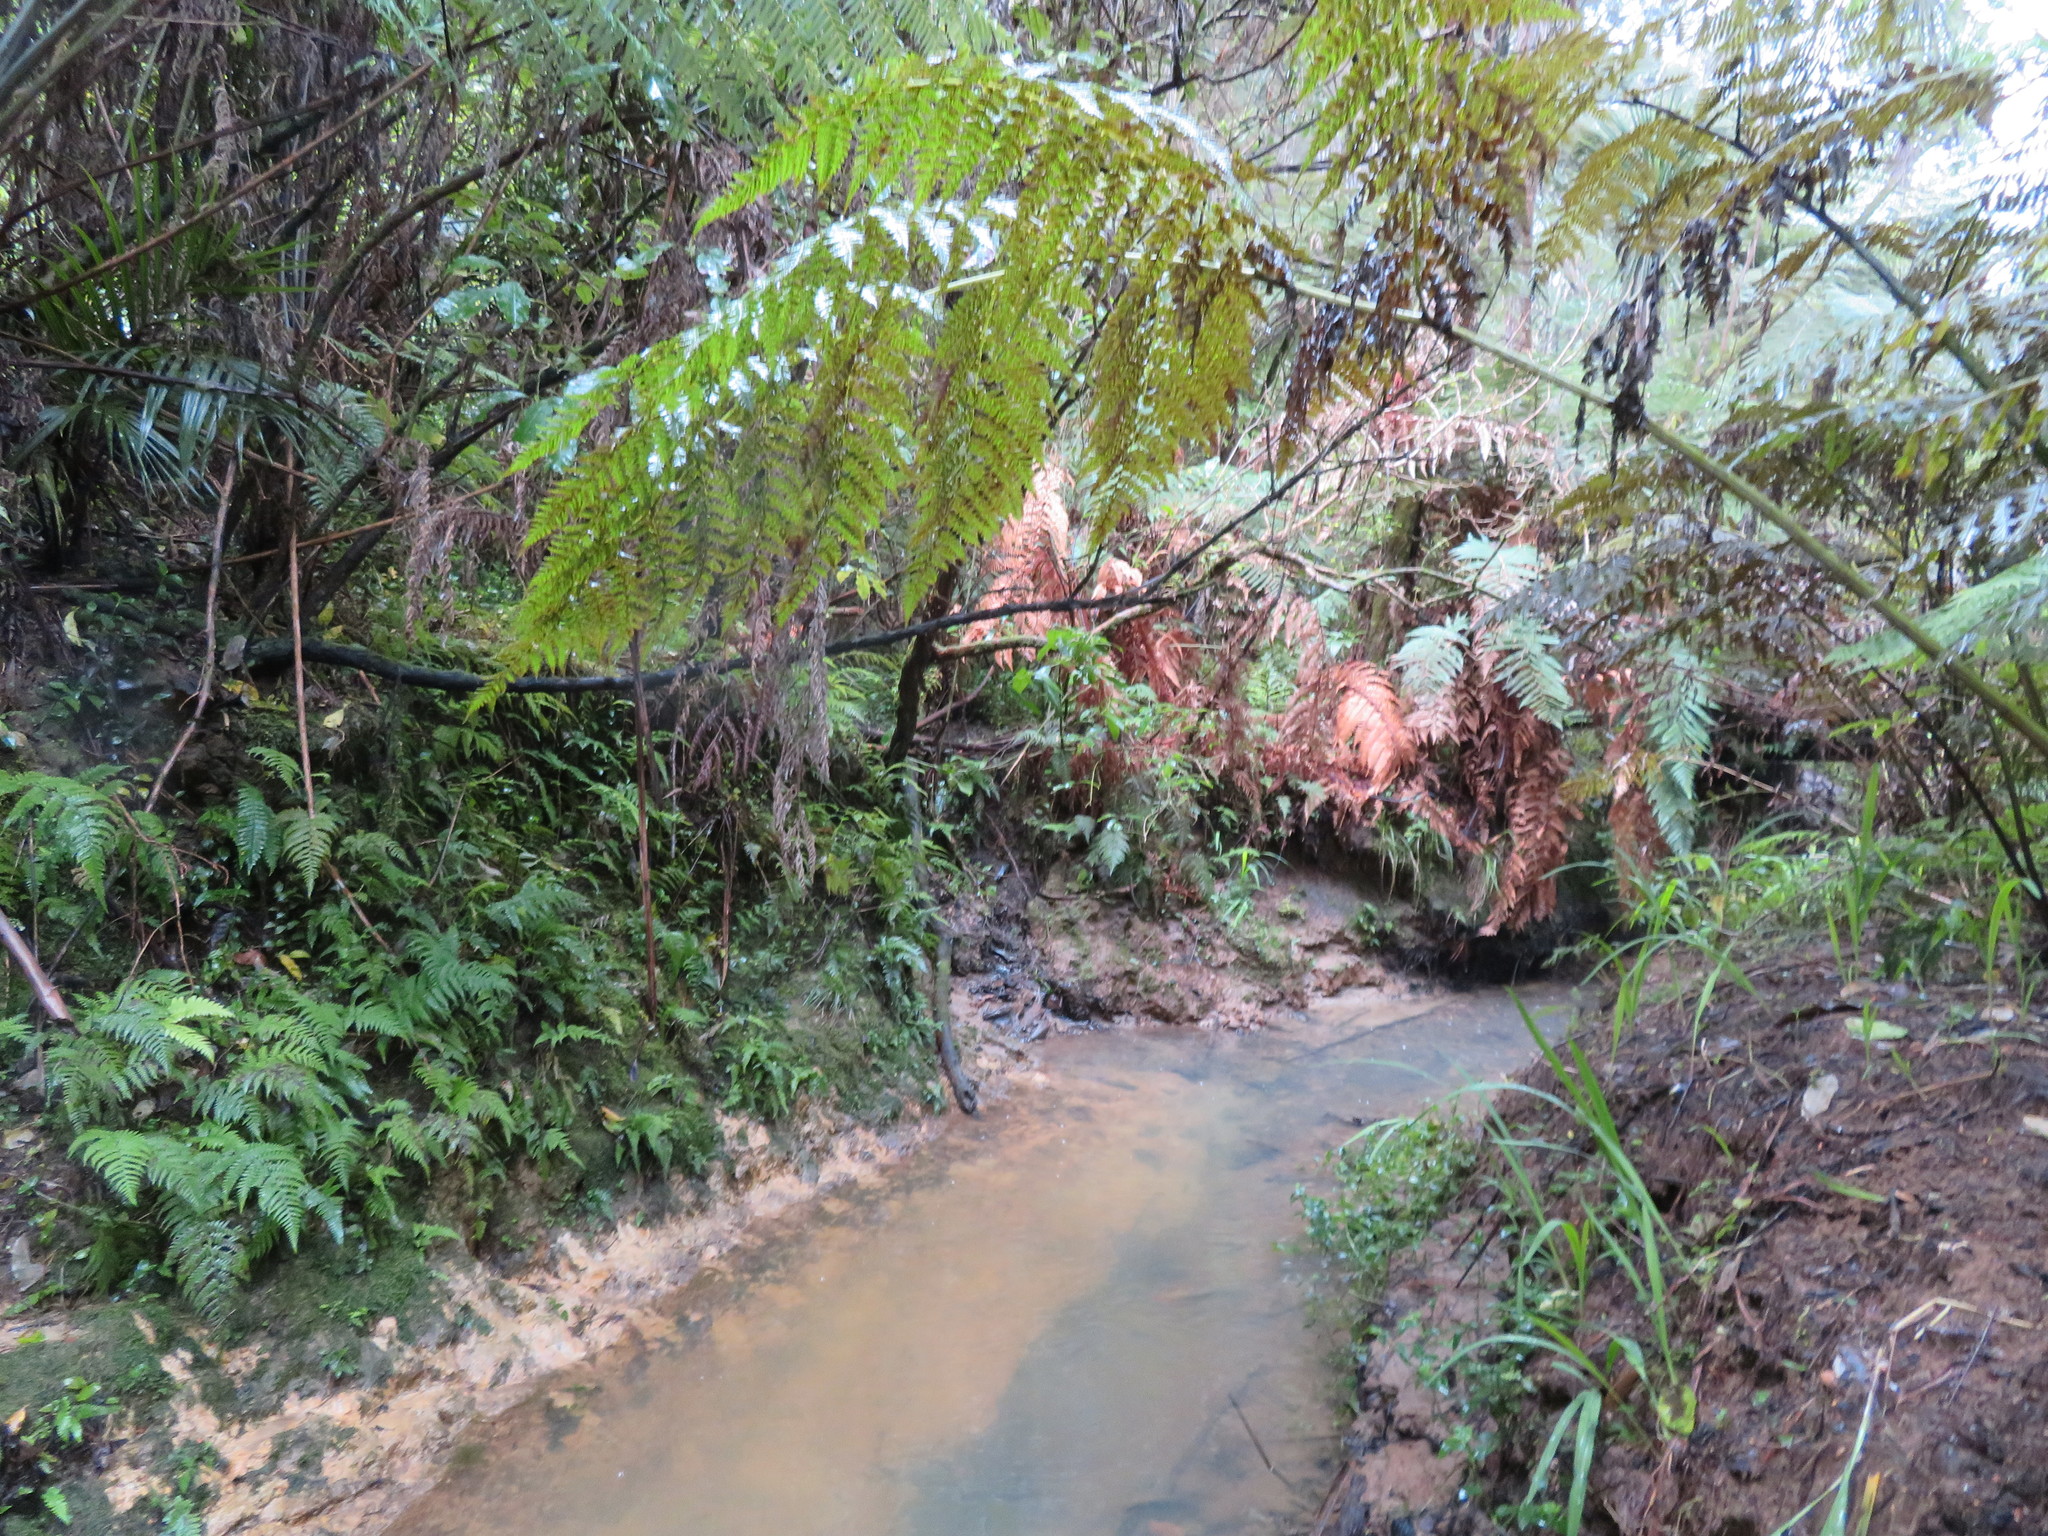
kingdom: Plantae
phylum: Tracheophyta
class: Liliopsida
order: Asparagales
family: Iridaceae
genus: Crocosmia
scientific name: Crocosmia crocosmiiflora
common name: Montbretia
